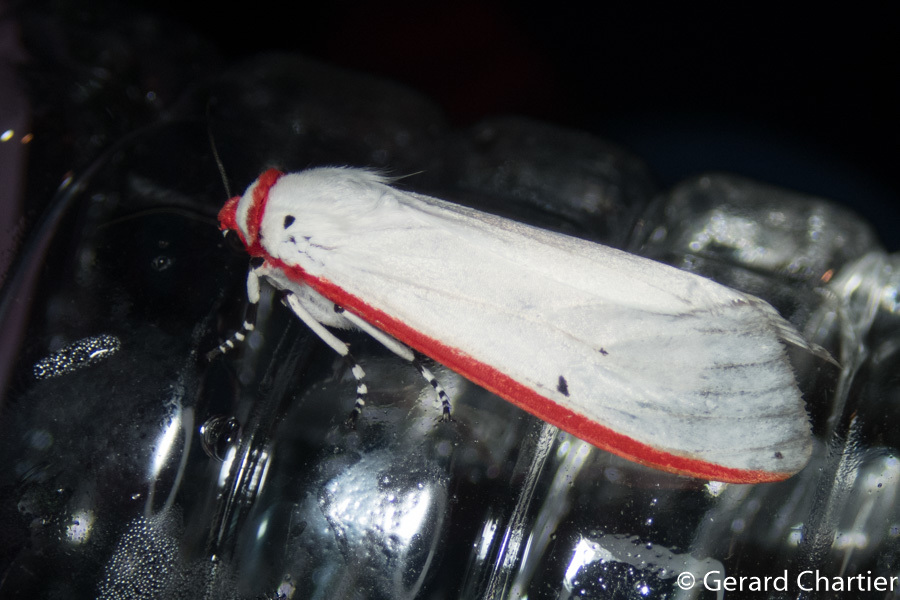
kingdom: Animalia
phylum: Arthropoda
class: Insecta
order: Lepidoptera
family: Erebidae
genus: Aloa
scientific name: Aloa lactinea
